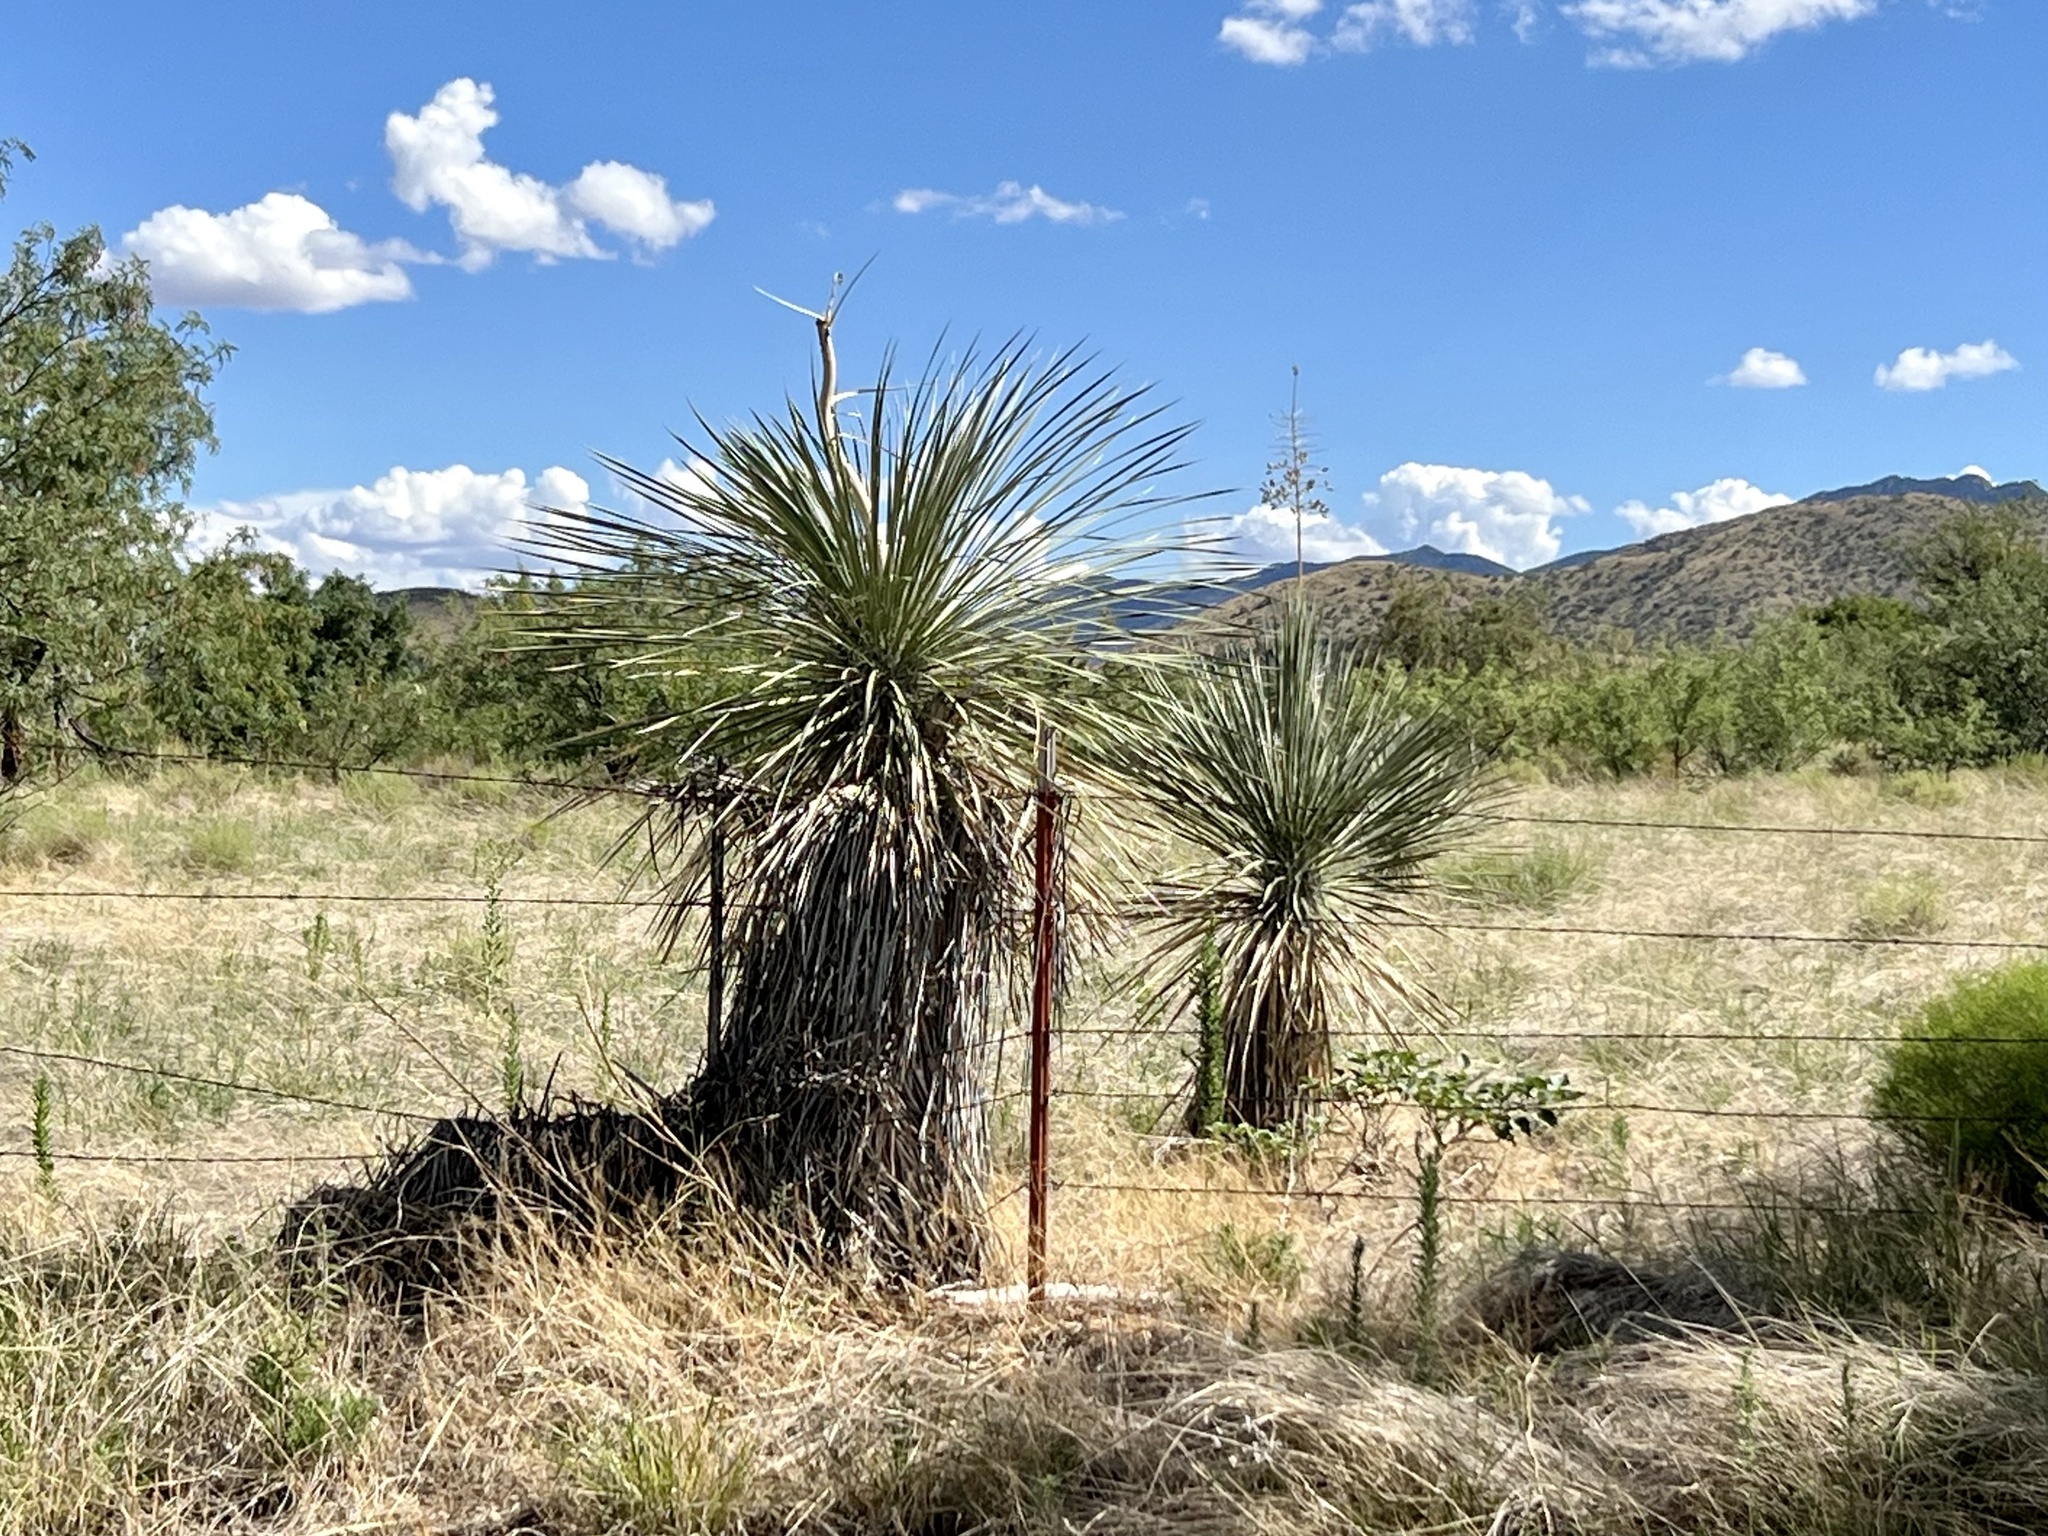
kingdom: Plantae
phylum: Tracheophyta
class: Liliopsida
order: Asparagales
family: Asparagaceae
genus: Yucca
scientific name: Yucca elata
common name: Palmella
